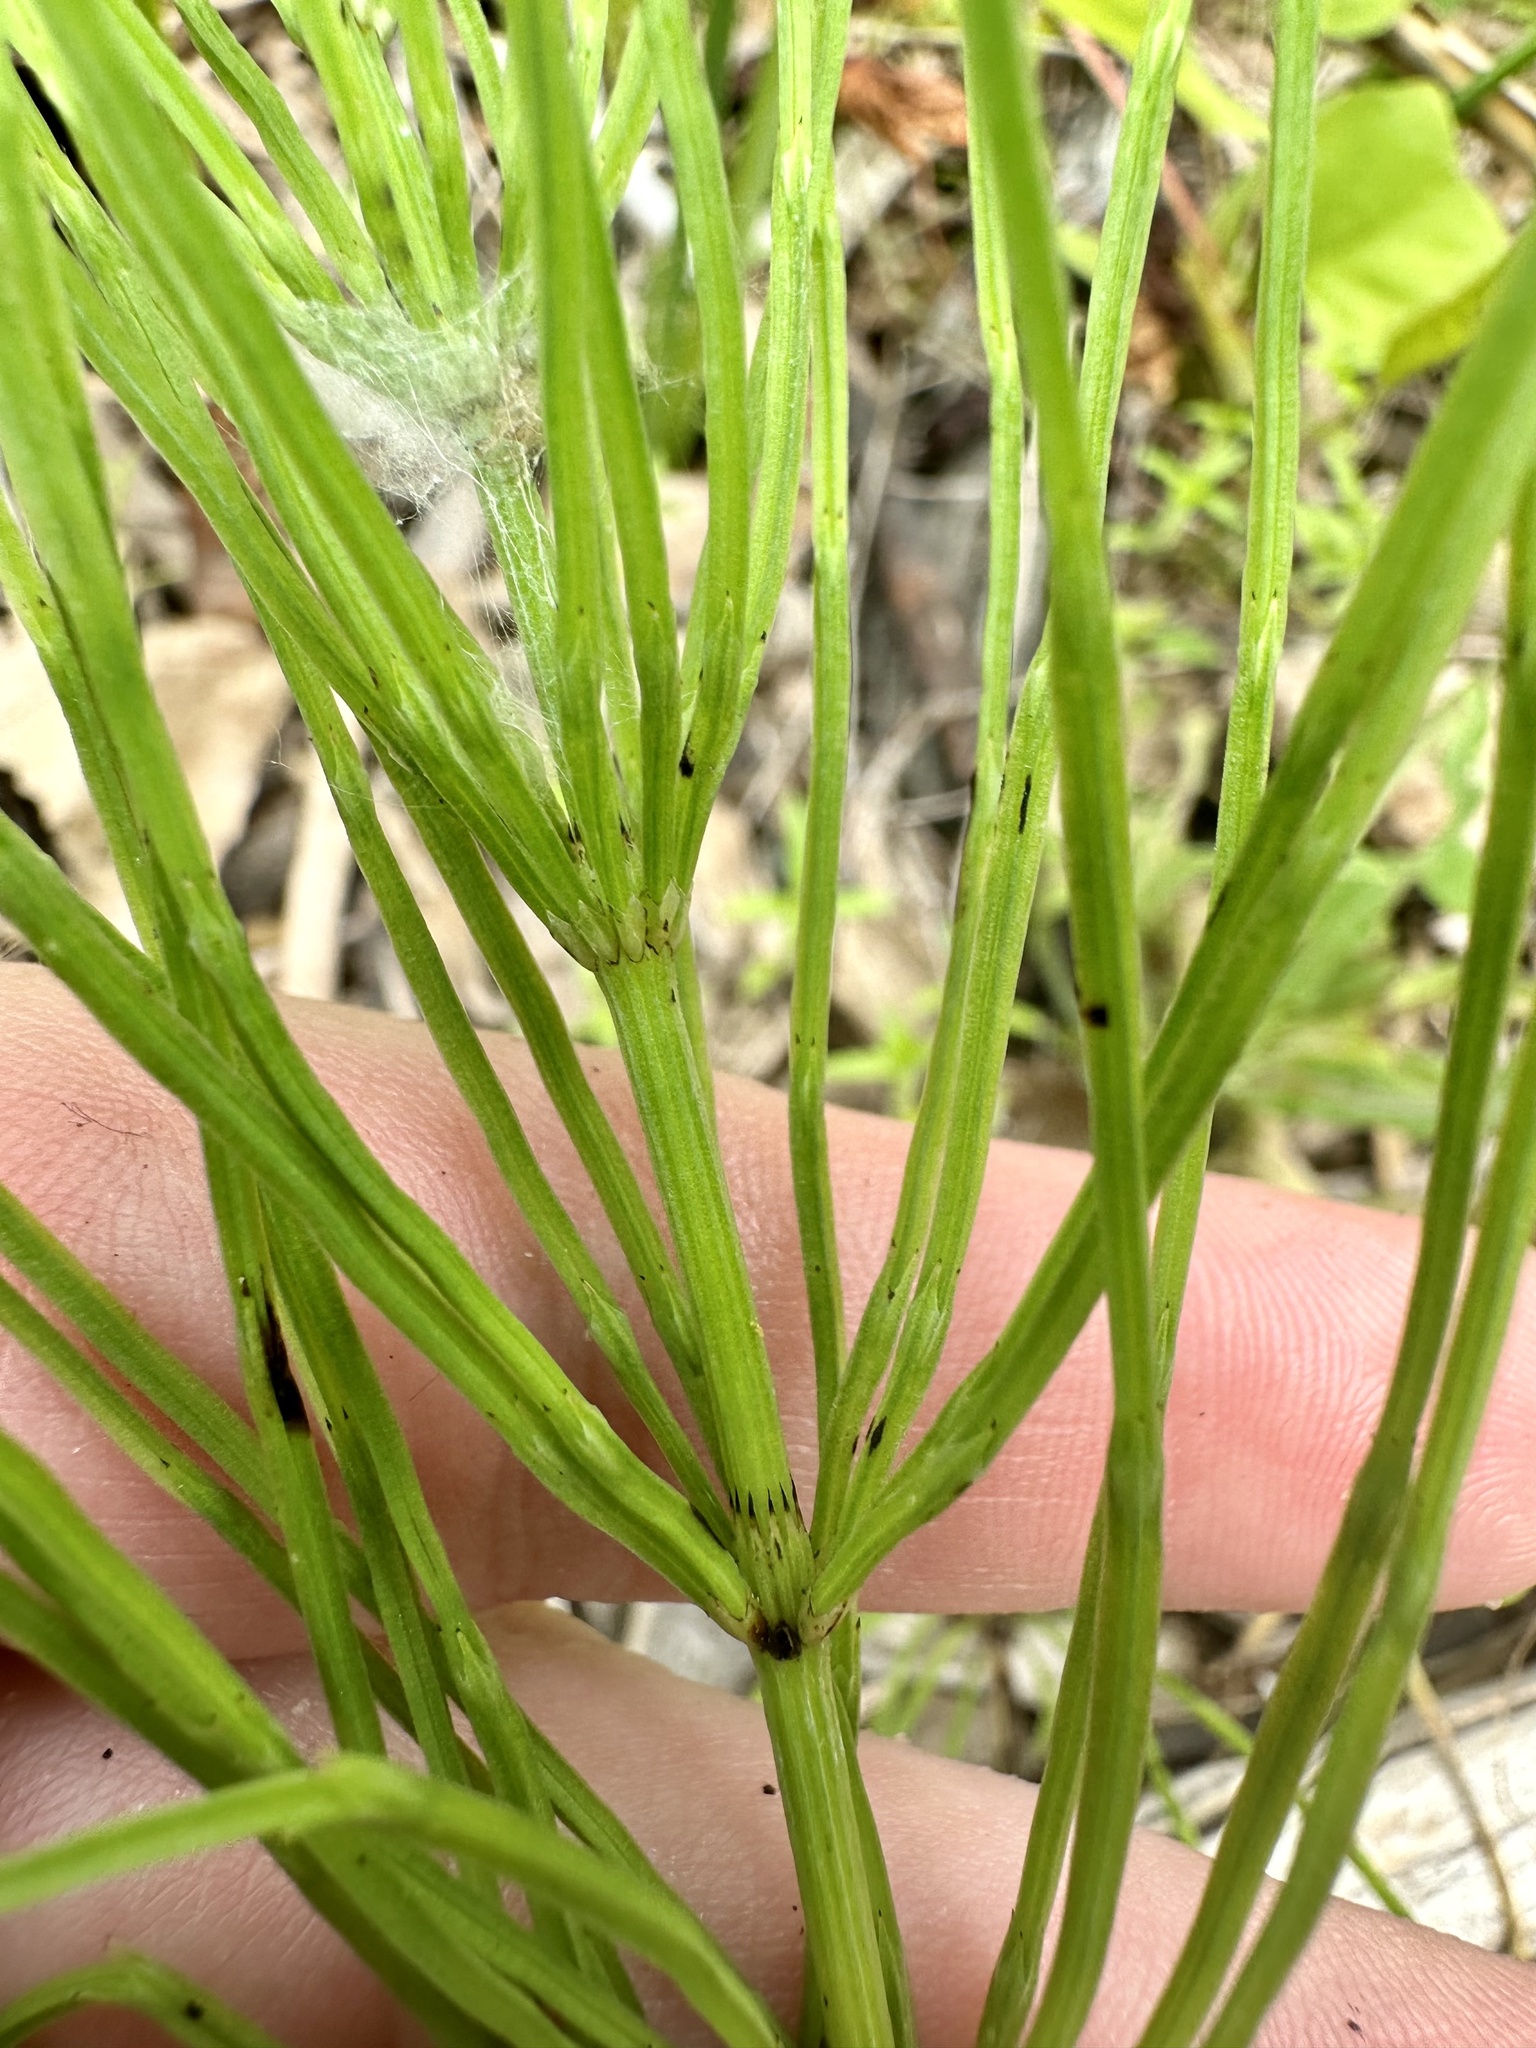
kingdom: Plantae
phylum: Tracheophyta
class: Polypodiopsida
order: Equisetales
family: Equisetaceae
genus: Equisetum
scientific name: Equisetum arvense
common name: Field horsetail
